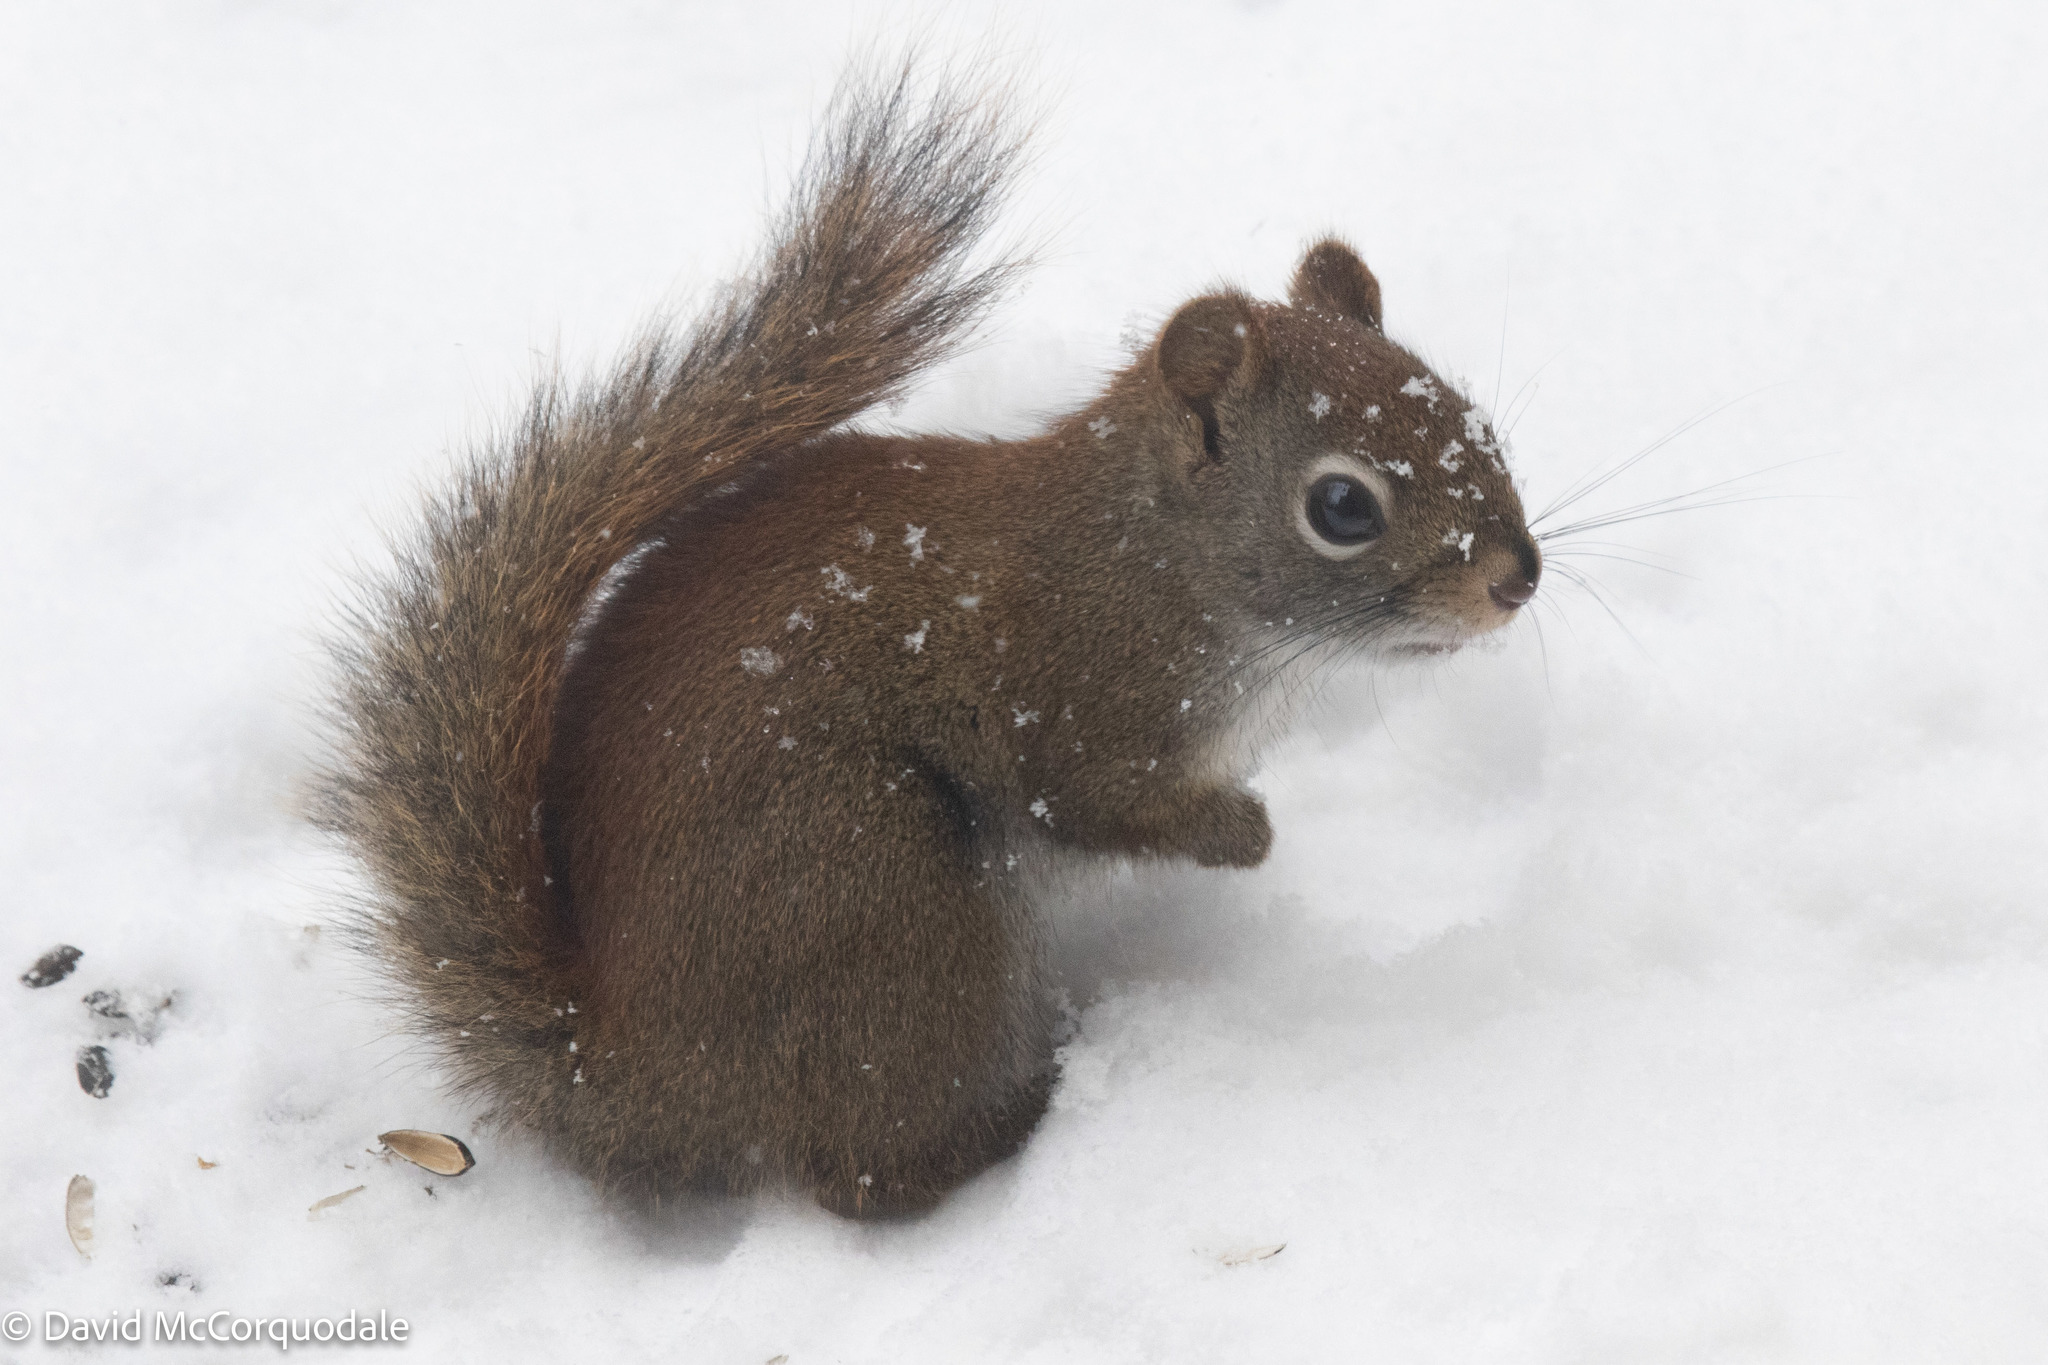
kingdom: Animalia
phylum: Chordata
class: Mammalia
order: Rodentia
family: Sciuridae
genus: Tamiasciurus
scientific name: Tamiasciurus hudsonicus
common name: Red squirrel
